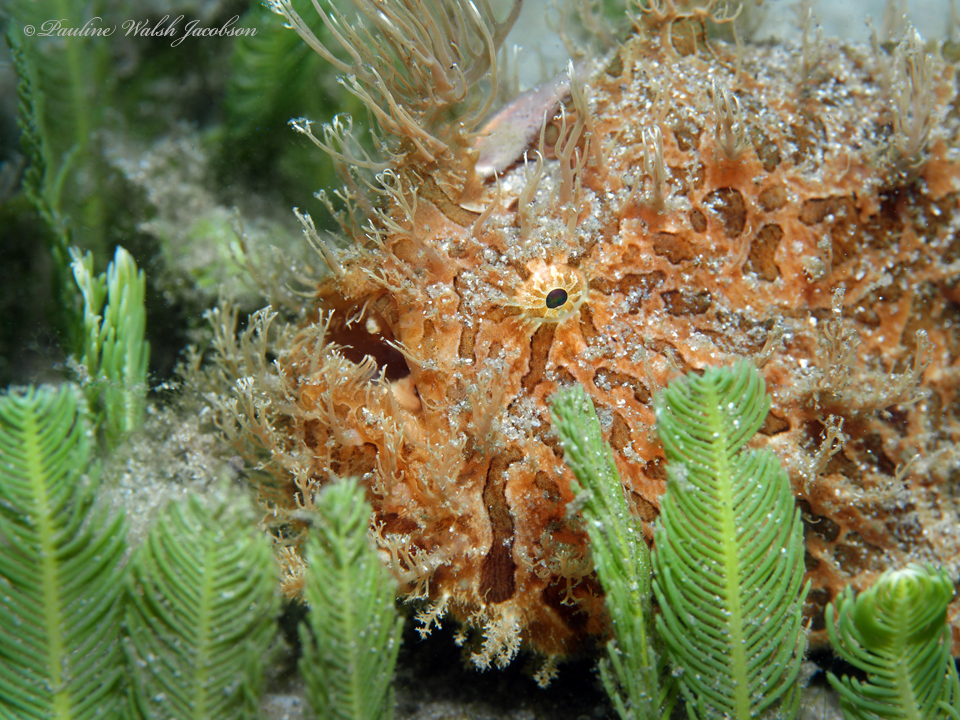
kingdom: Animalia
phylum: Chordata
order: Lophiiformes
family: Antennariidae
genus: Antennarius
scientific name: Antennarius striatus
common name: Striated frogfish
